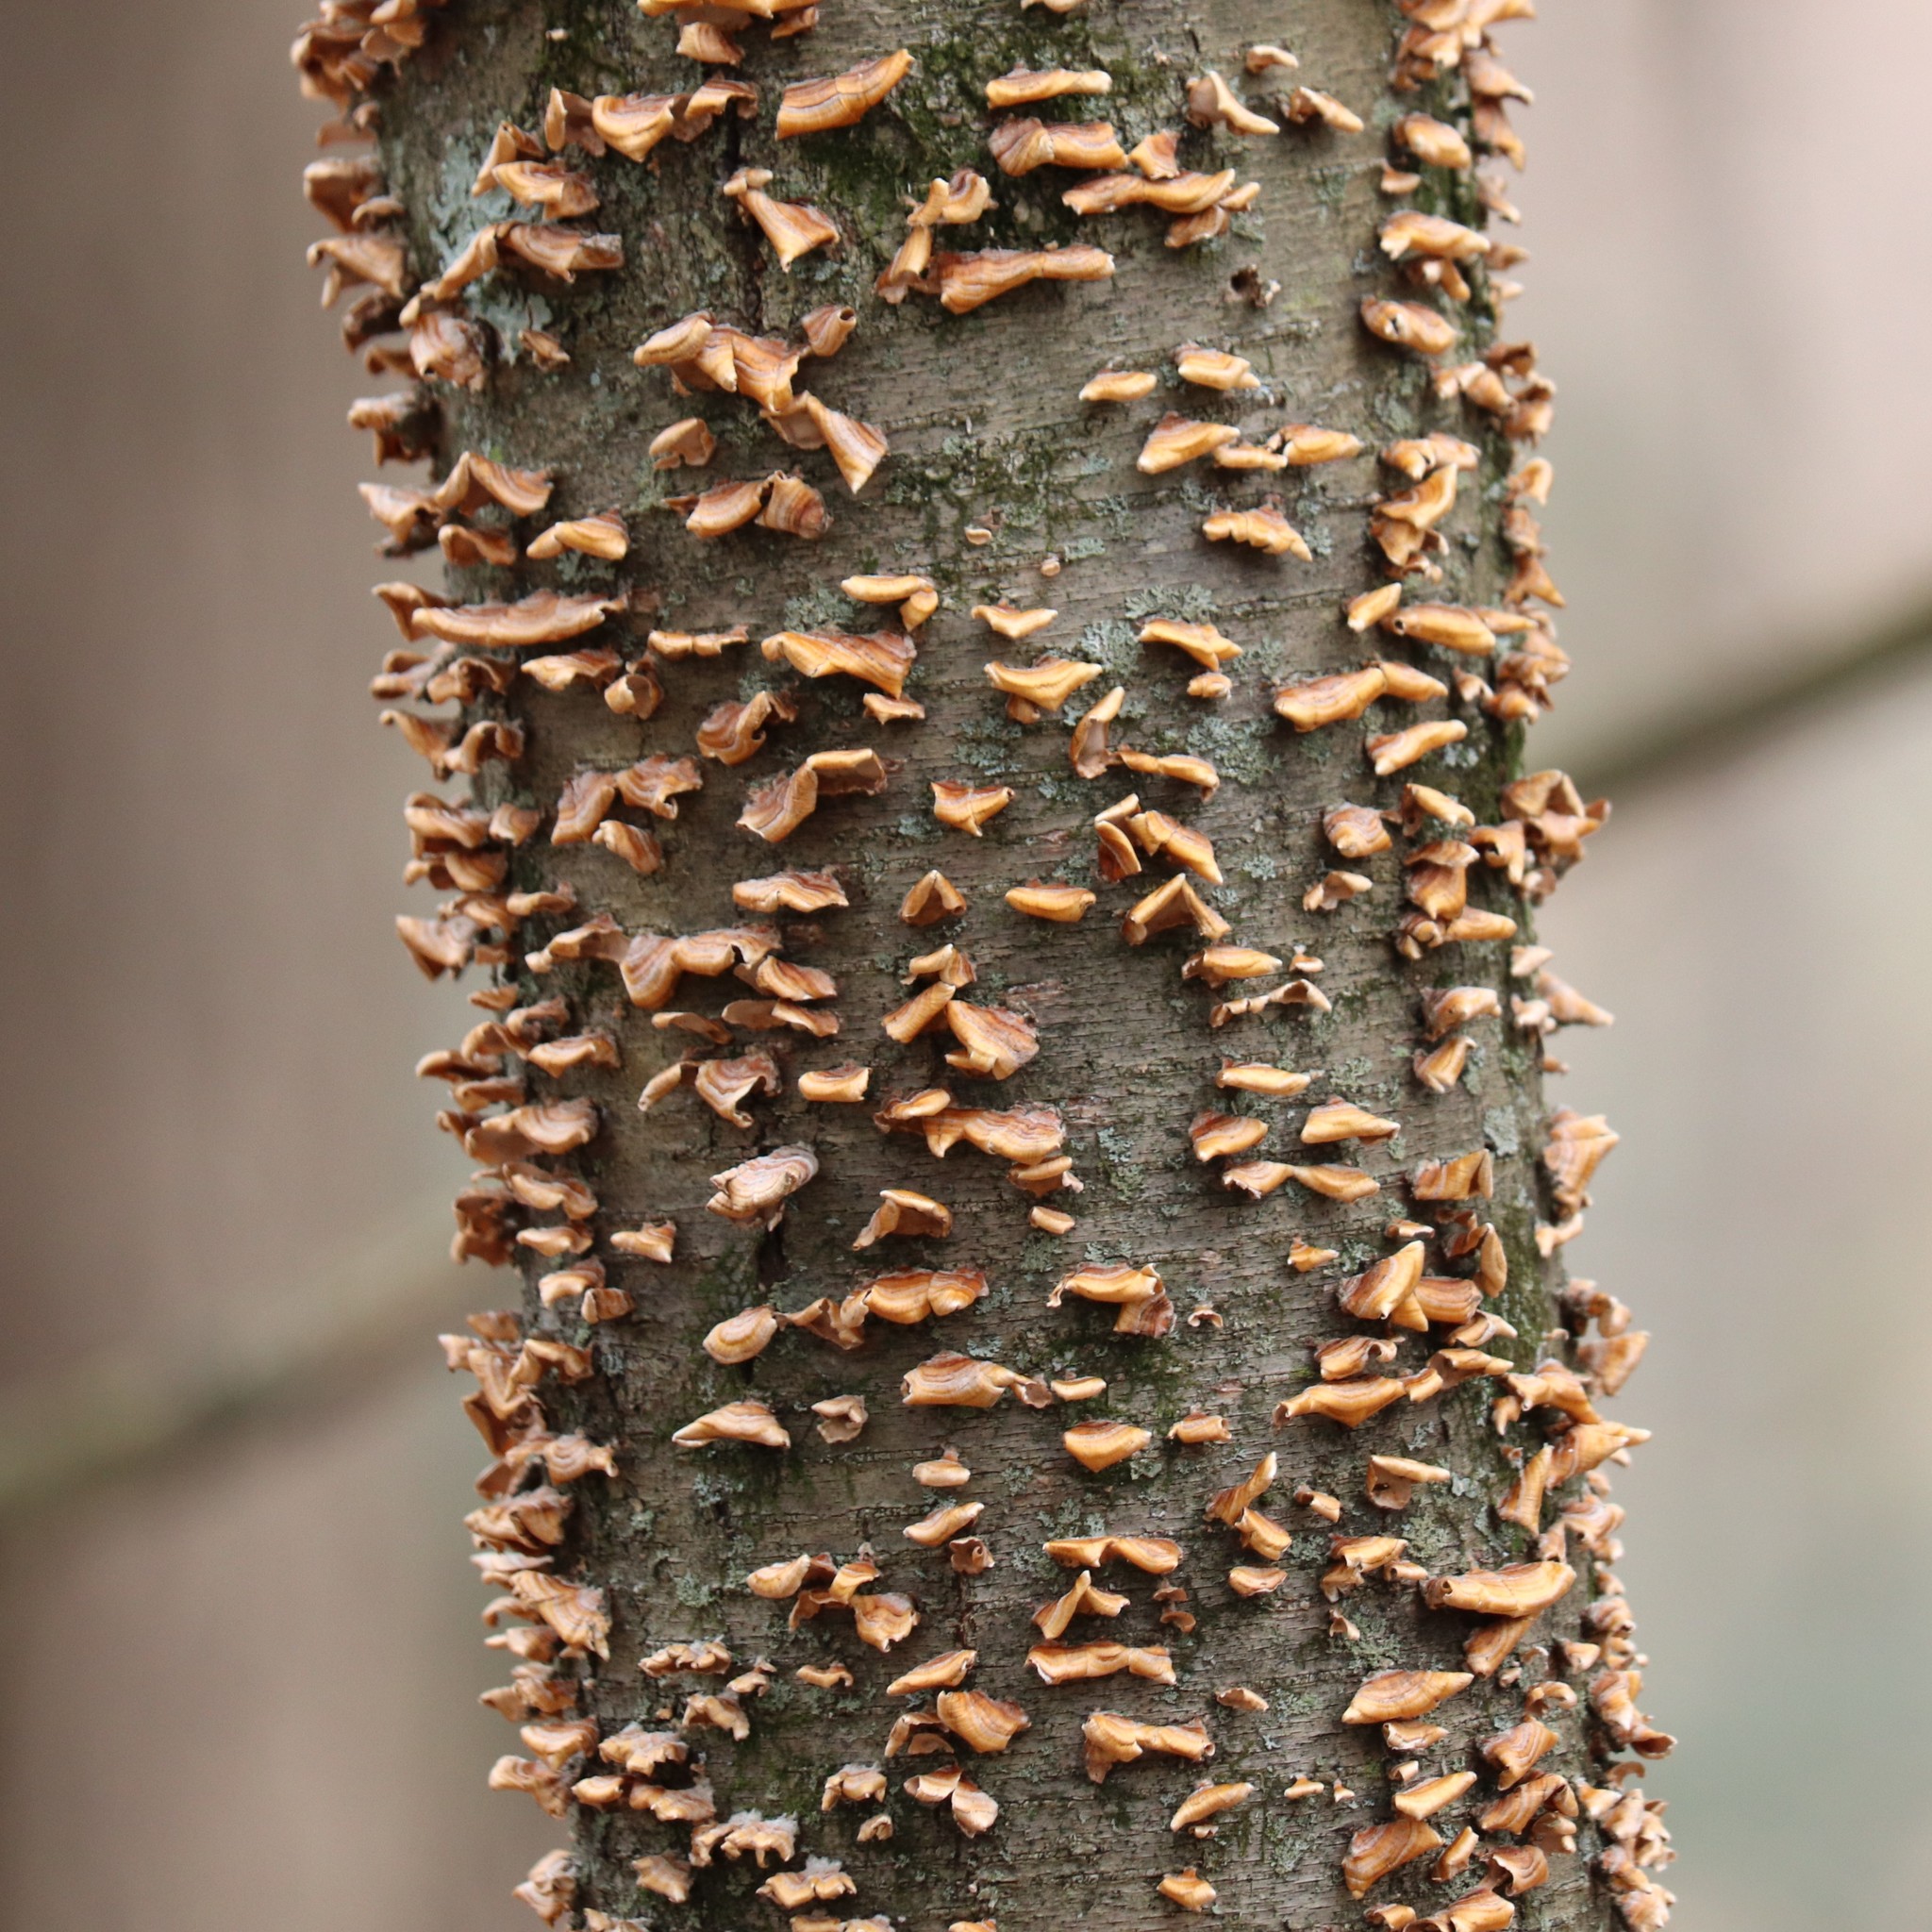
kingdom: Fungi
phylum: Basidiomycota
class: Agaricomycetes
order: Russulales
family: Stereaceae
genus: Stereum
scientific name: Stereum complicatum
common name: Crowded parchment
